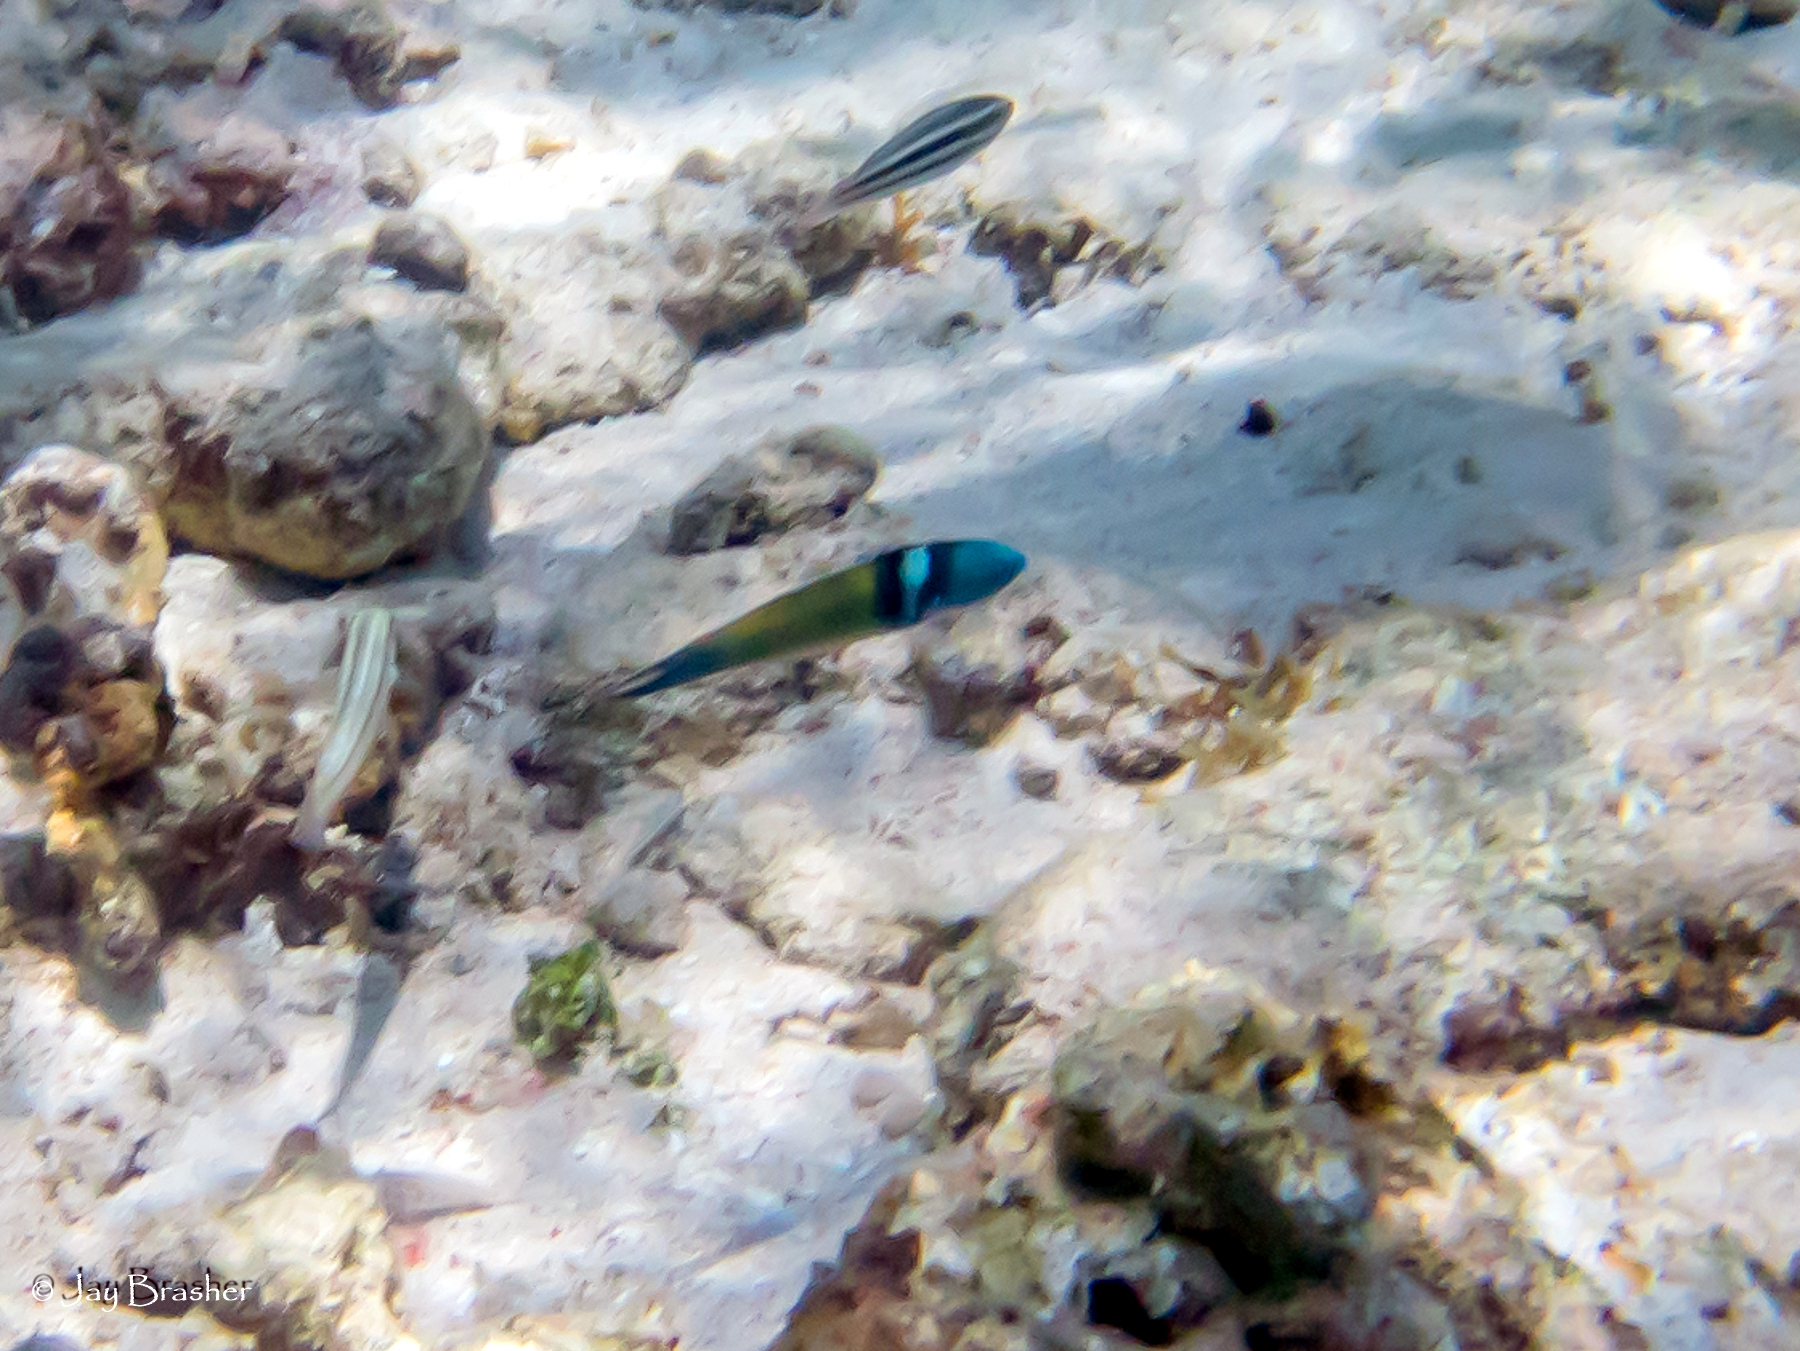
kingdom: Animalia
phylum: Chordata
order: Perciformes
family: Labridae
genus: Thalassoma
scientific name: Thalassoma bifasciatum
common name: Bluehead wrasse
